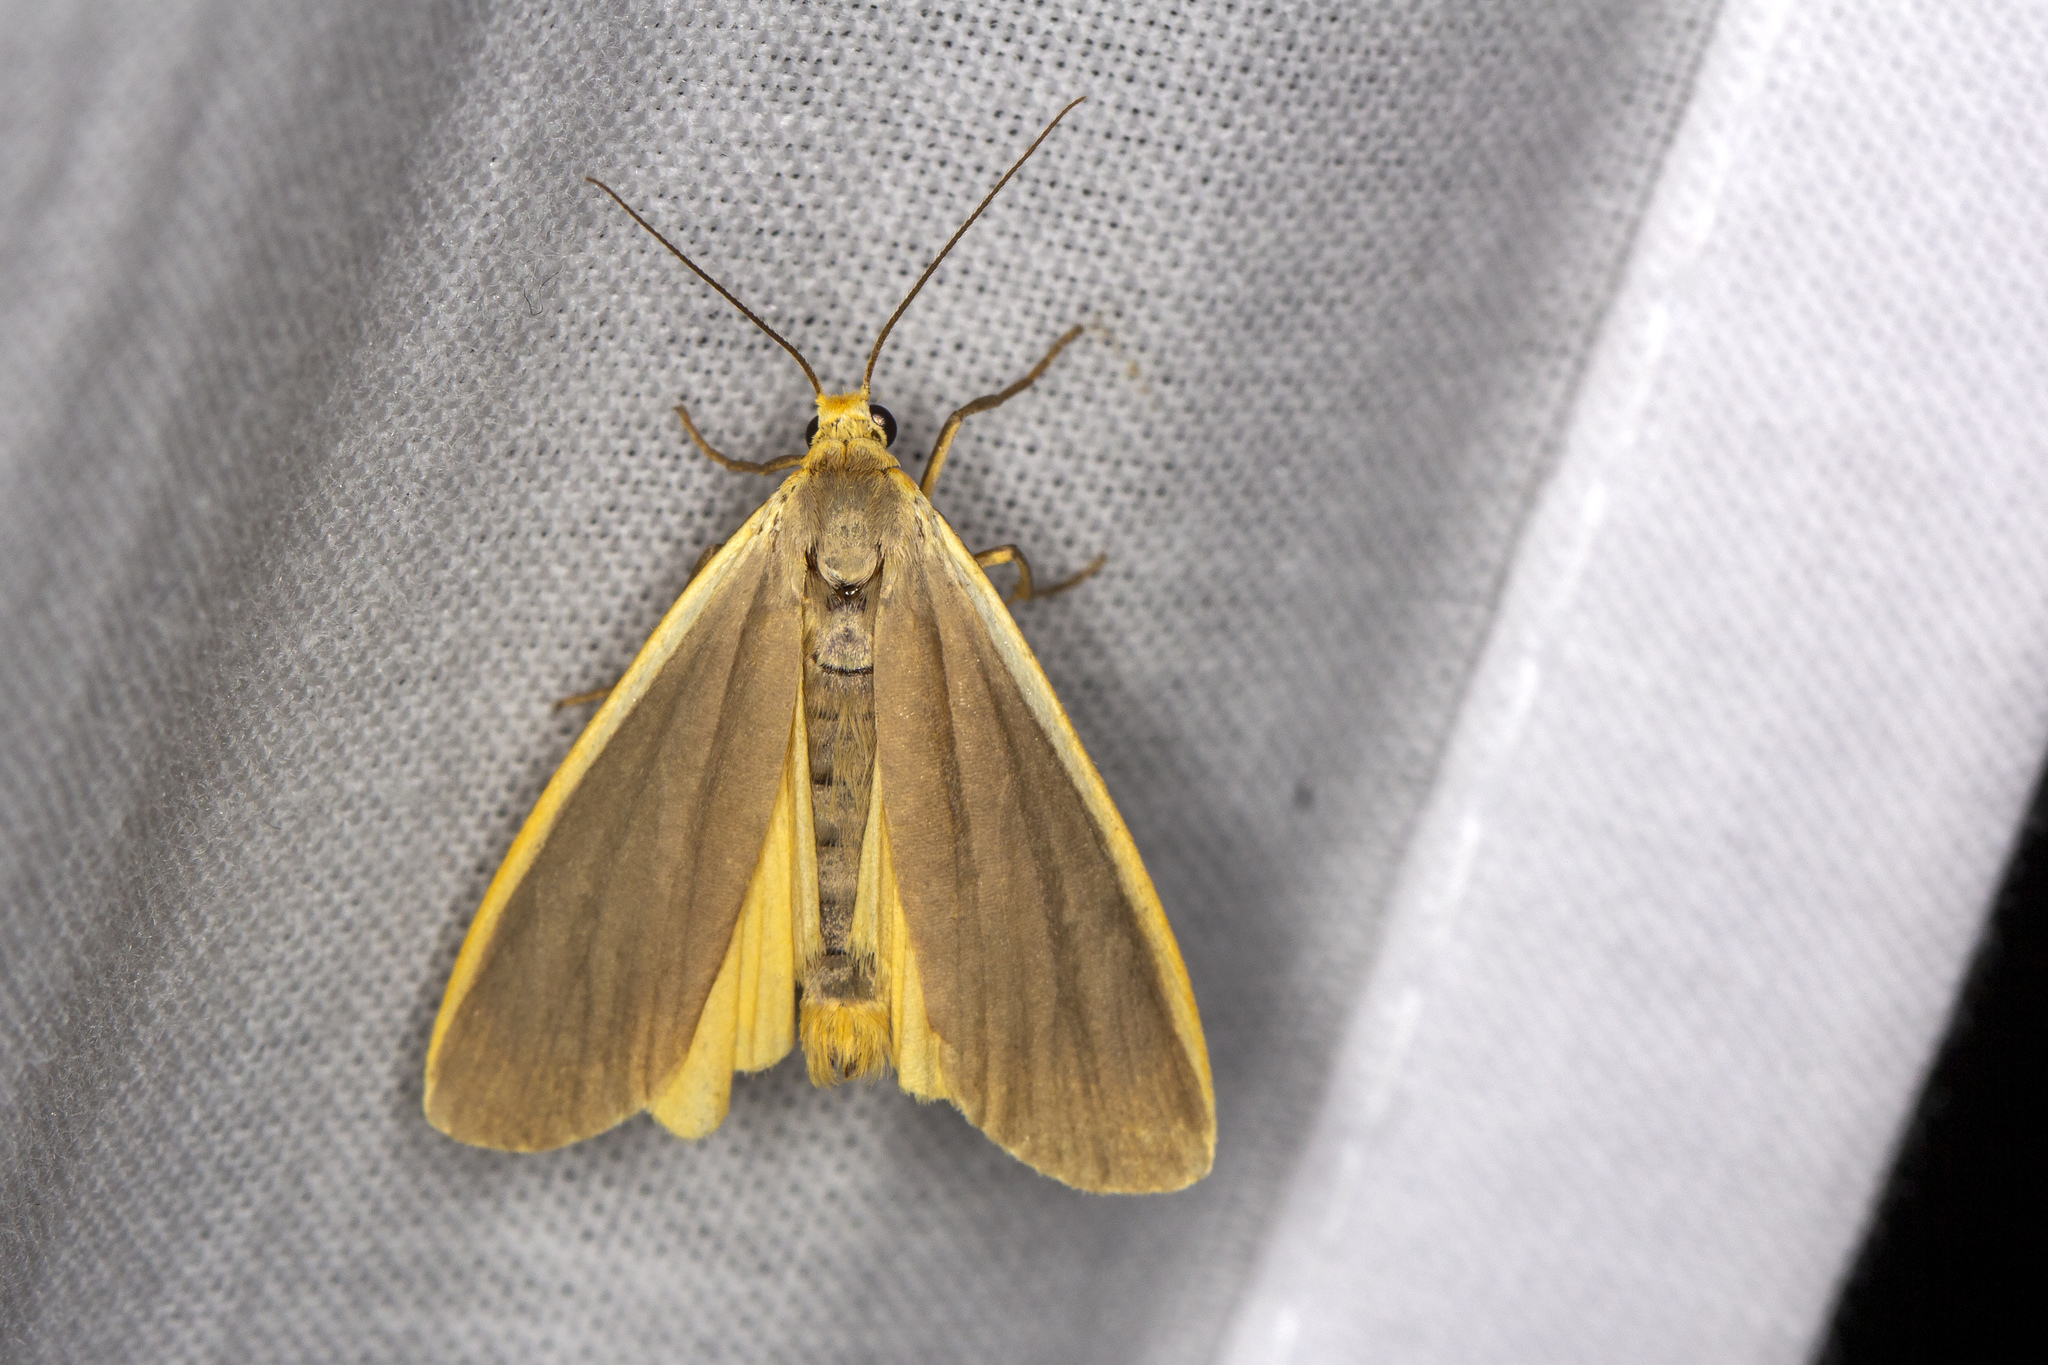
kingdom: Animalia
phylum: Arthropoda
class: Insecta
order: Lepidoptera
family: Erebidae
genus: Nyea
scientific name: Nyea lurideola
